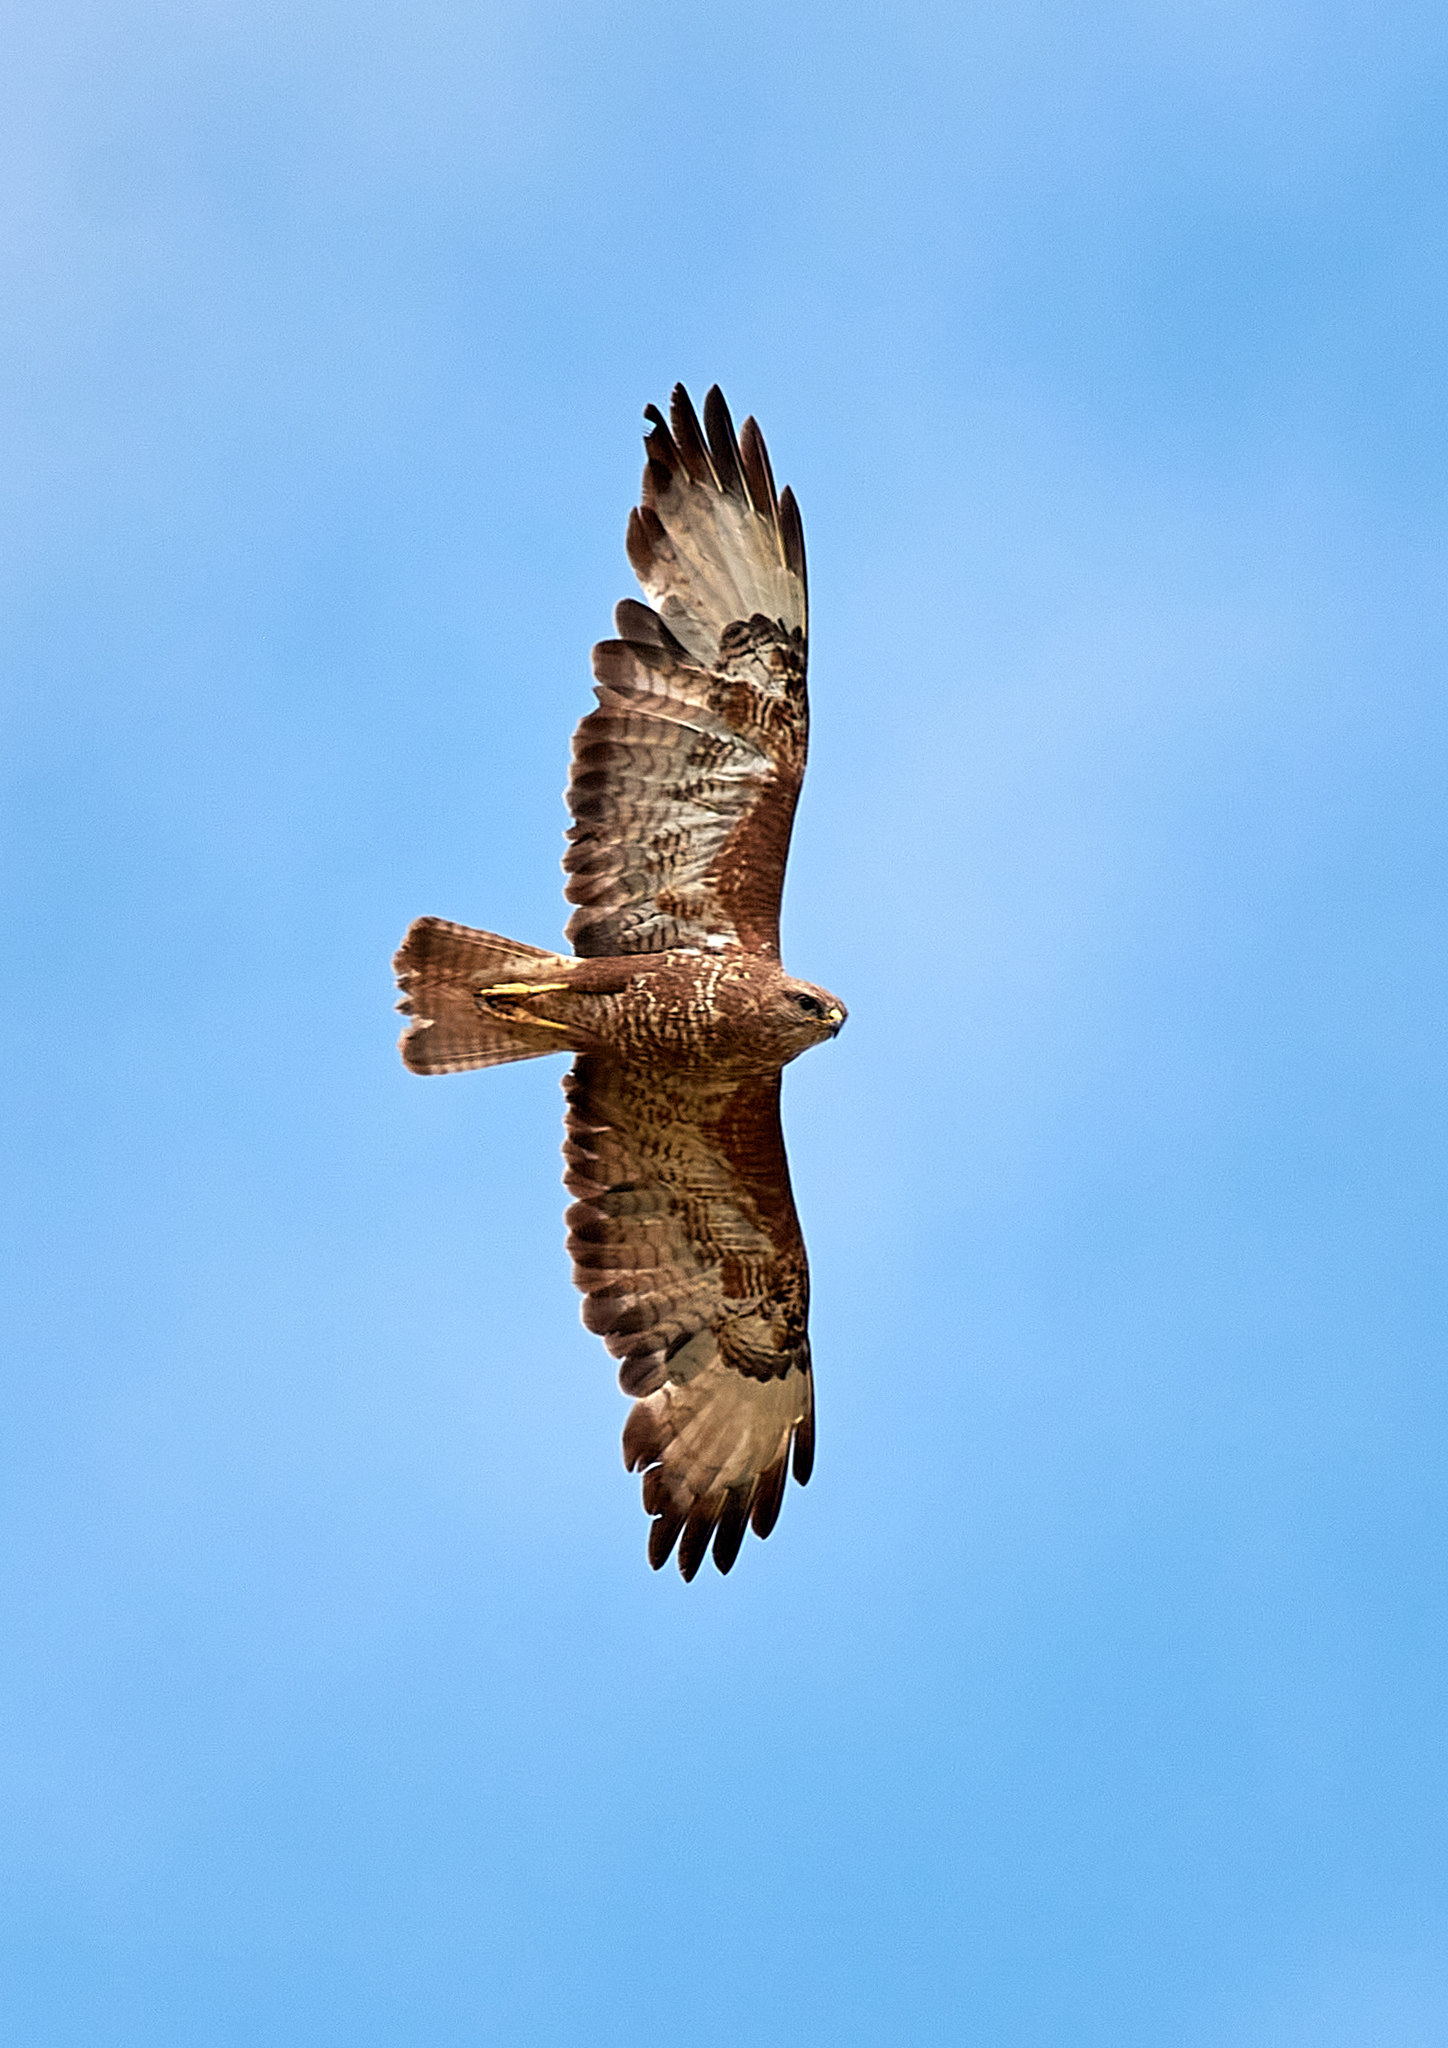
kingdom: Animalia
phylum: Chordata
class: Aves
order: Accipitriformes
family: Accipitridae
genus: Buteo
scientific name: Buteo buteo
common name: Common buzzard
